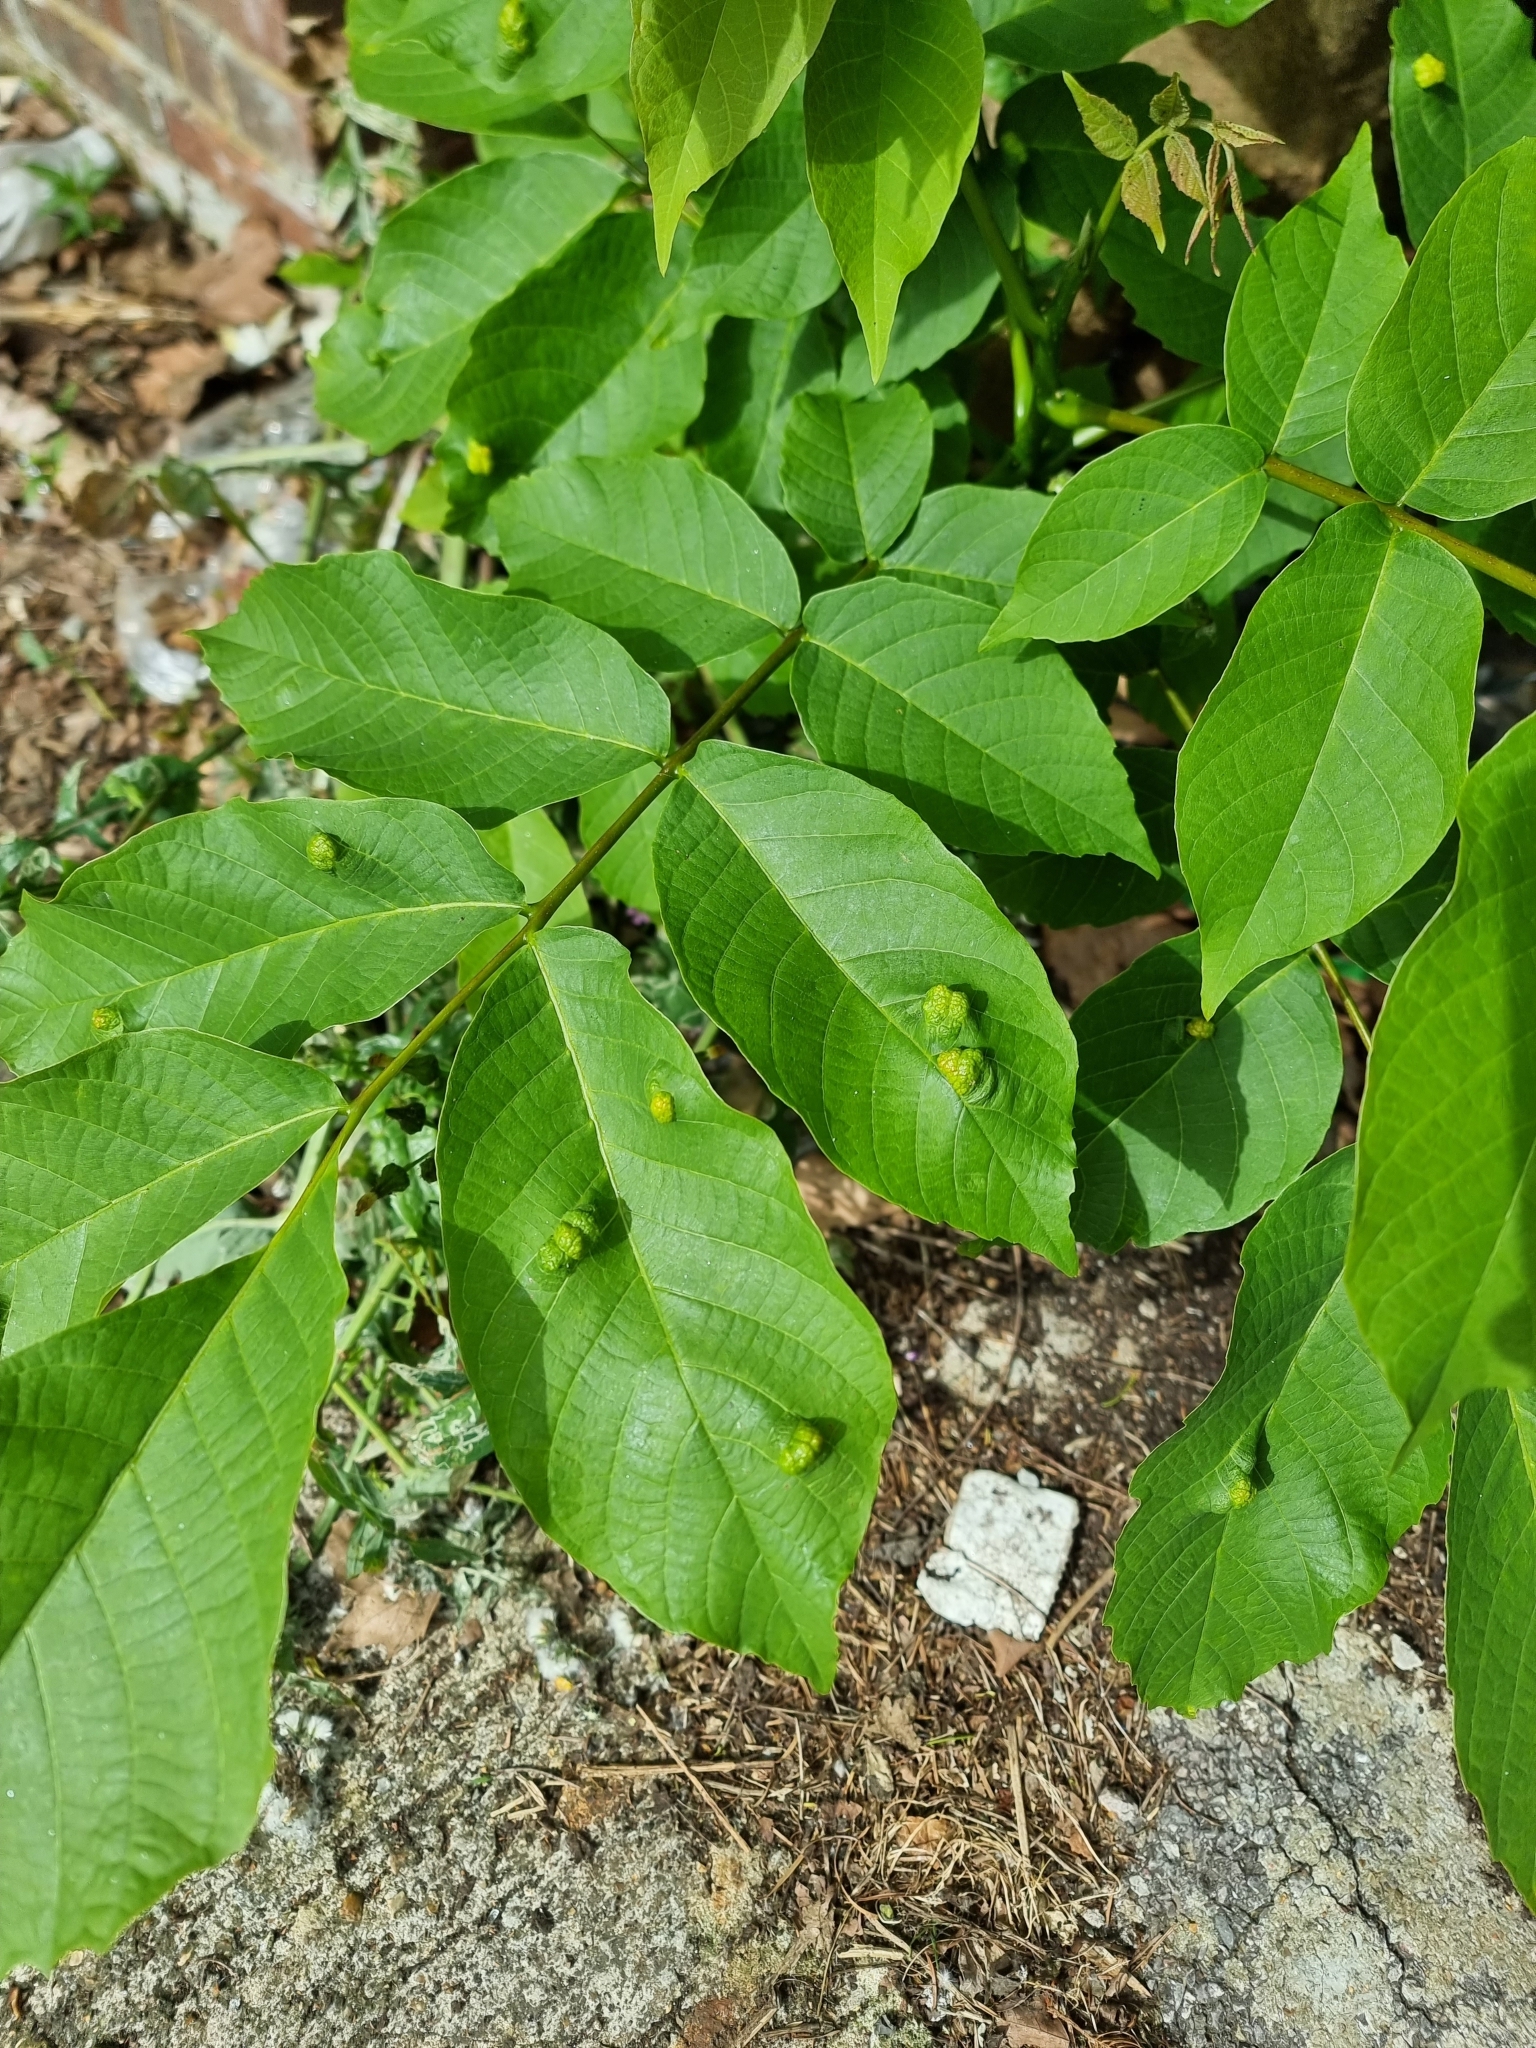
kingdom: Animalia
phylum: Arthropoda
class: Arachnida
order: Trombidiformes
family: Eriophyidae
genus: Aceria
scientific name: Aceria erinea
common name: Persian walnut erineum mite
